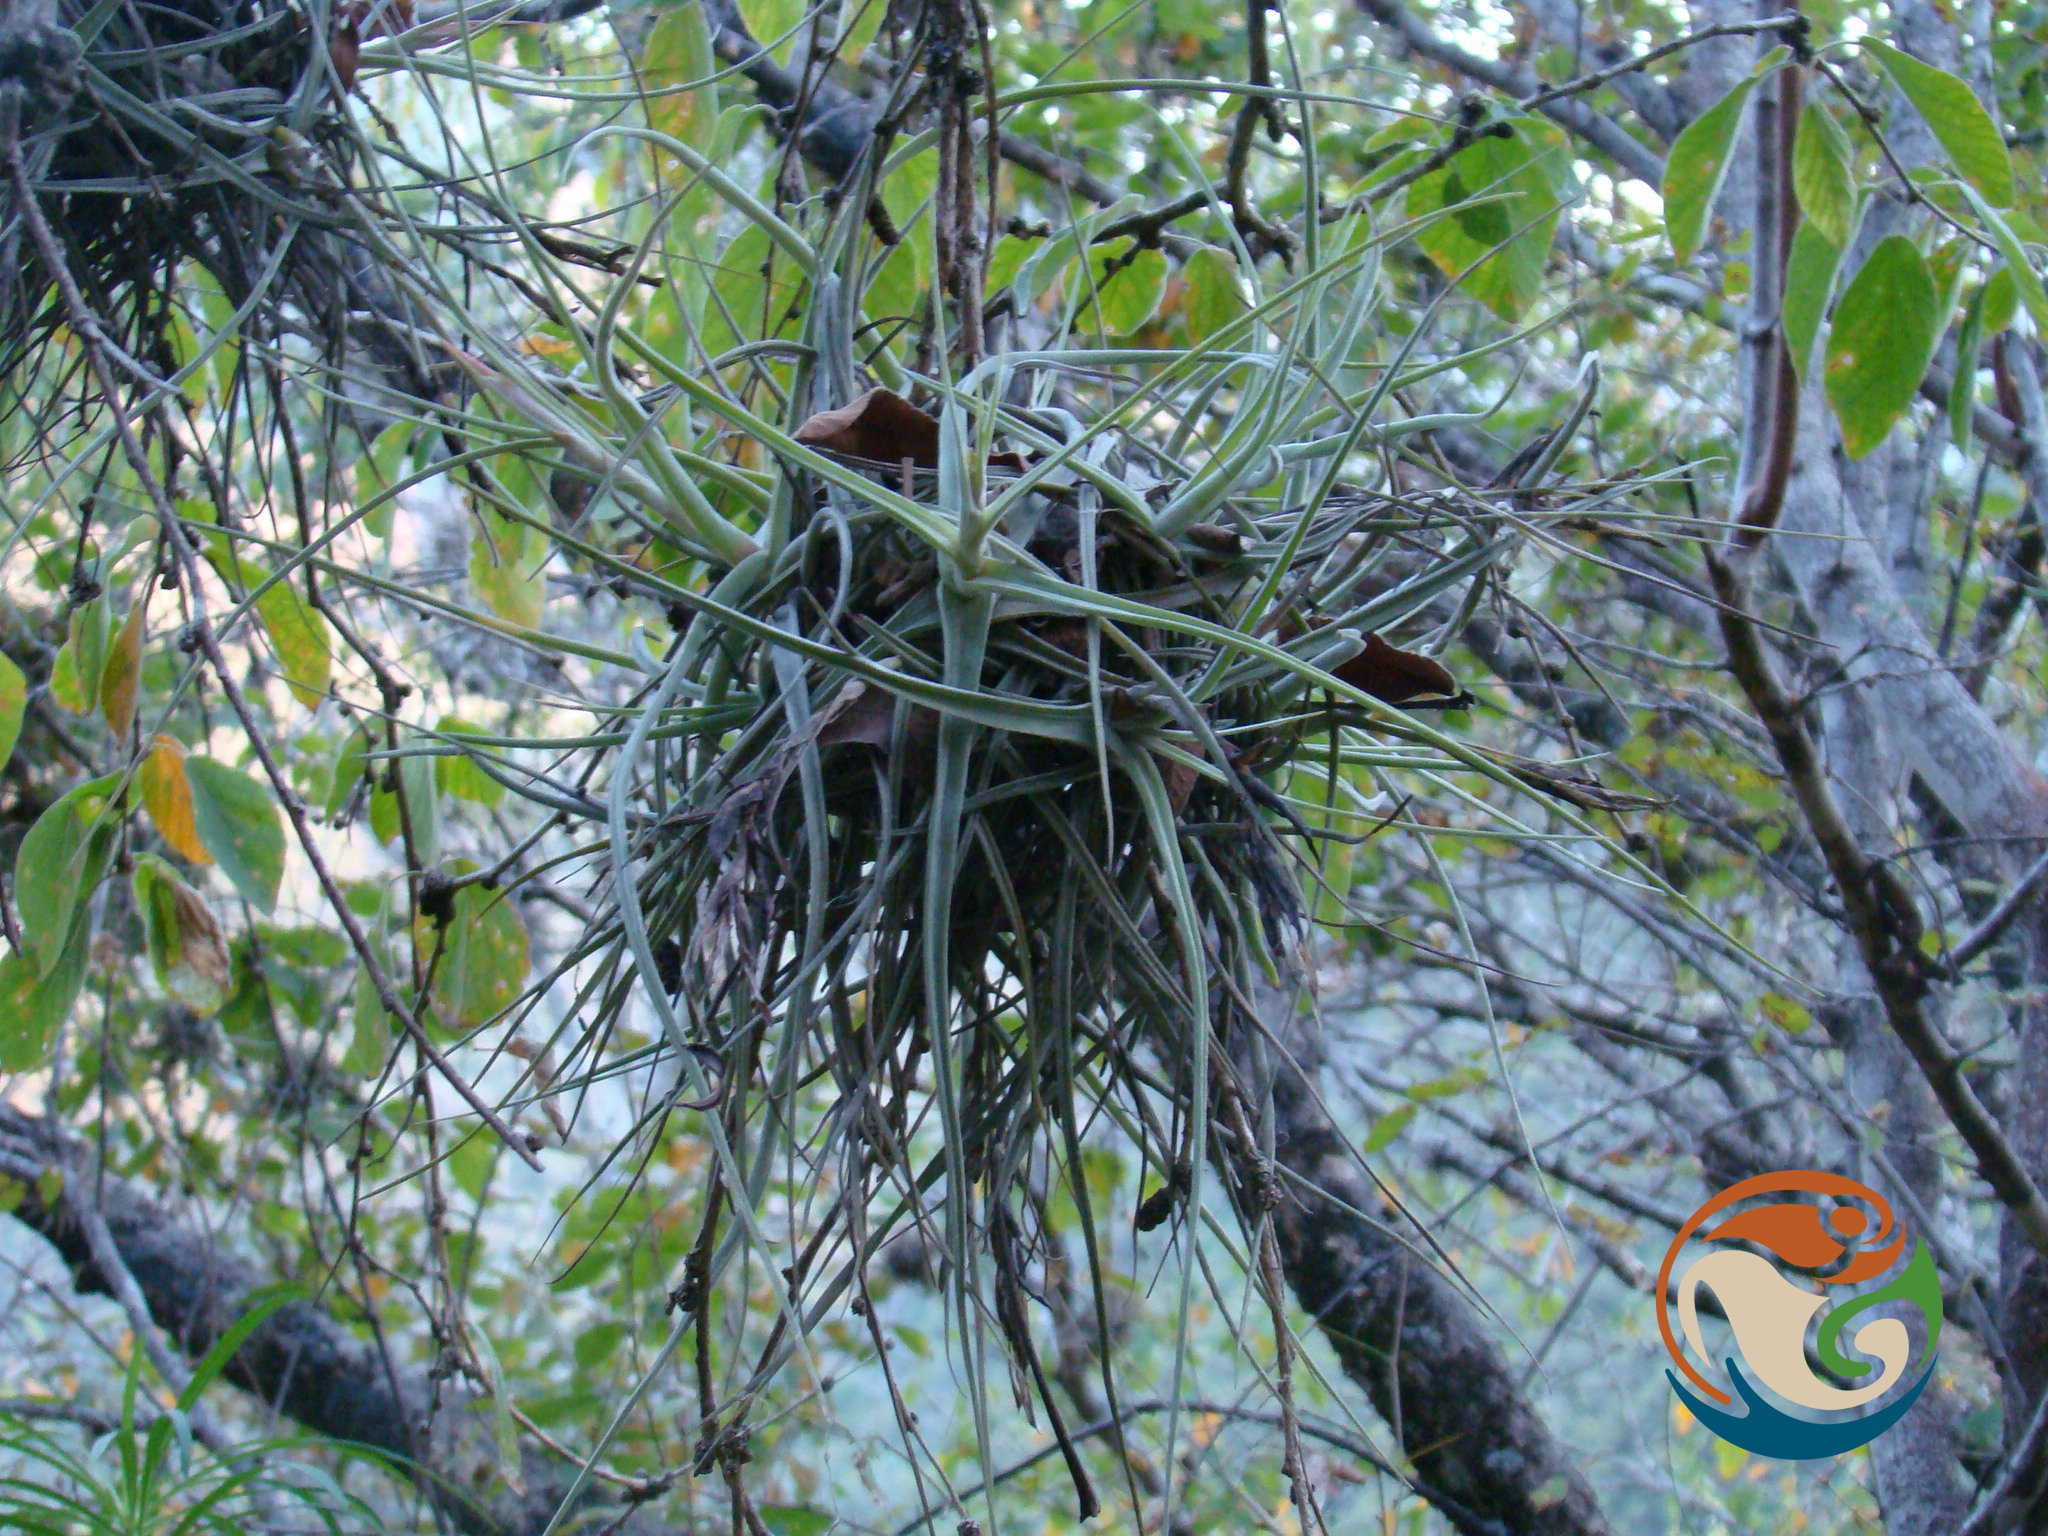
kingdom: Plantae
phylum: Tracheophyta
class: Liliopsida
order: Poales
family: Bromeliaceae
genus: Tillandsia
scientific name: Tillandsia schiedeana
